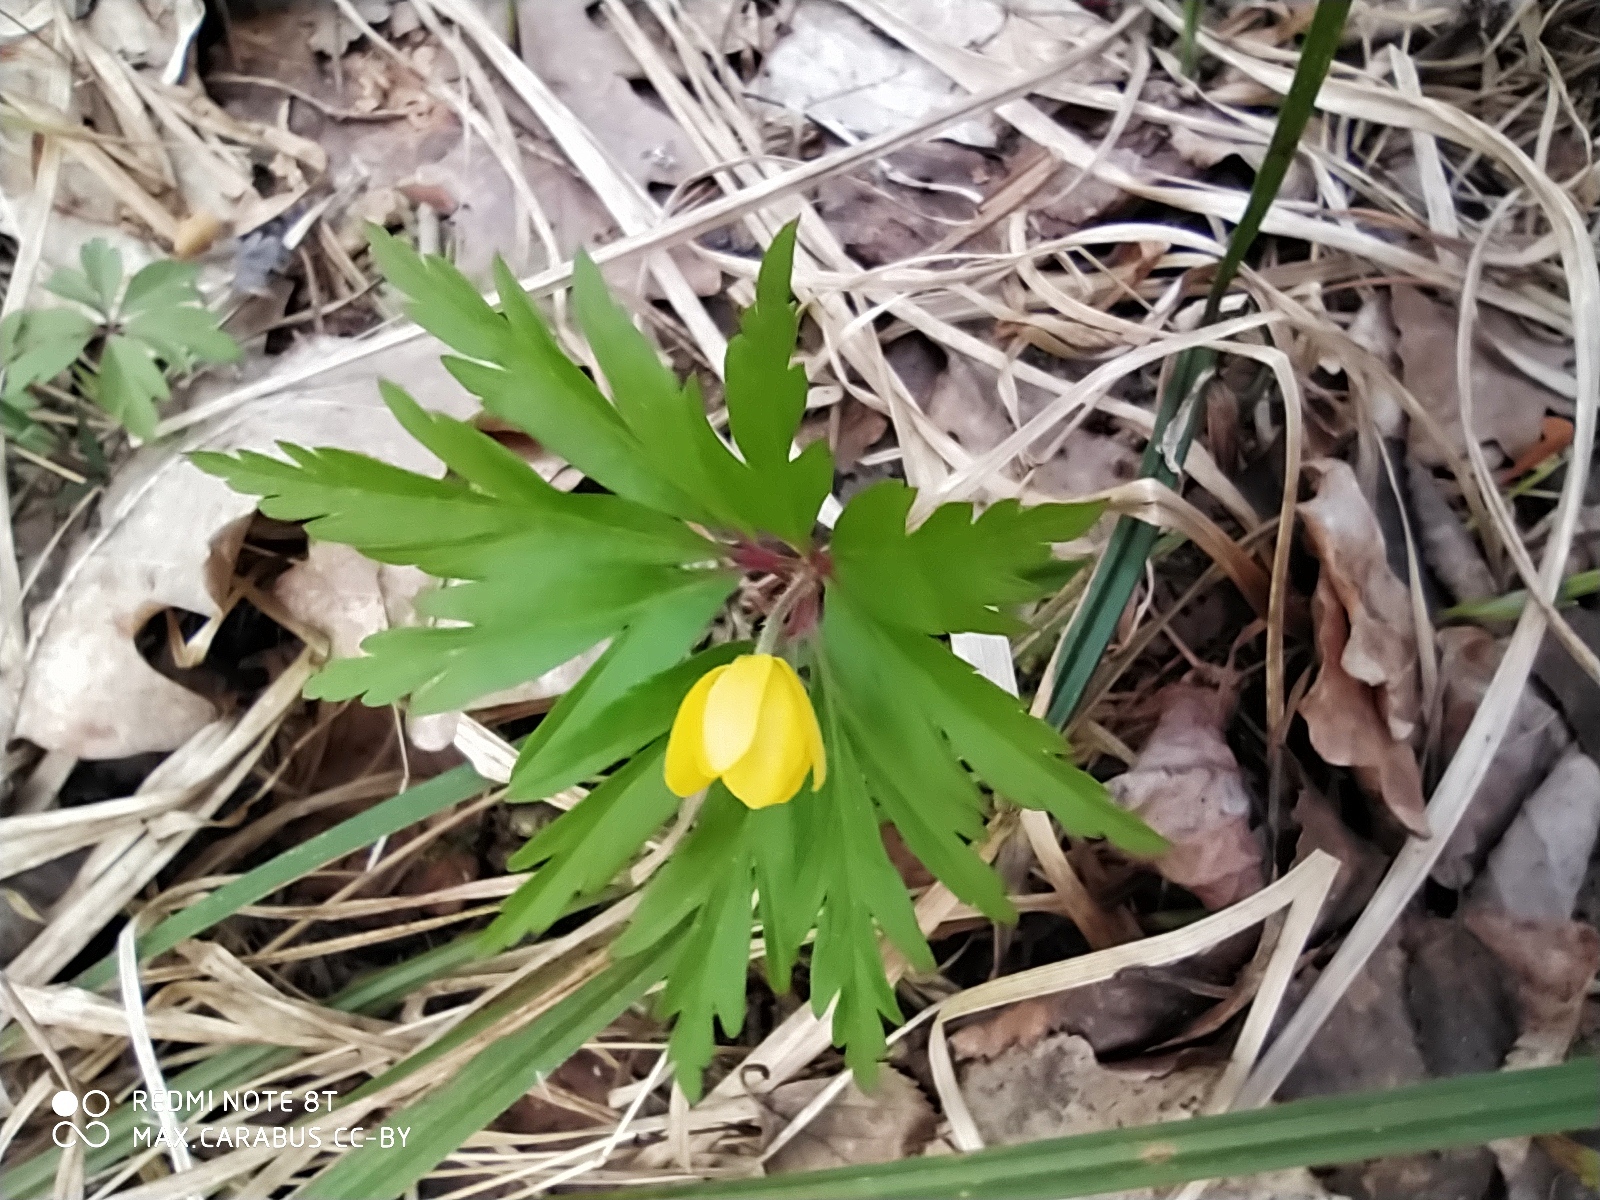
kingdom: Plantae
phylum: Tracheophyta
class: Magnoliopsida
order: Ranunculales
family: Ranunculaceae
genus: Anemone
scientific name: Anemone ranunculoides
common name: Yellow anemone
